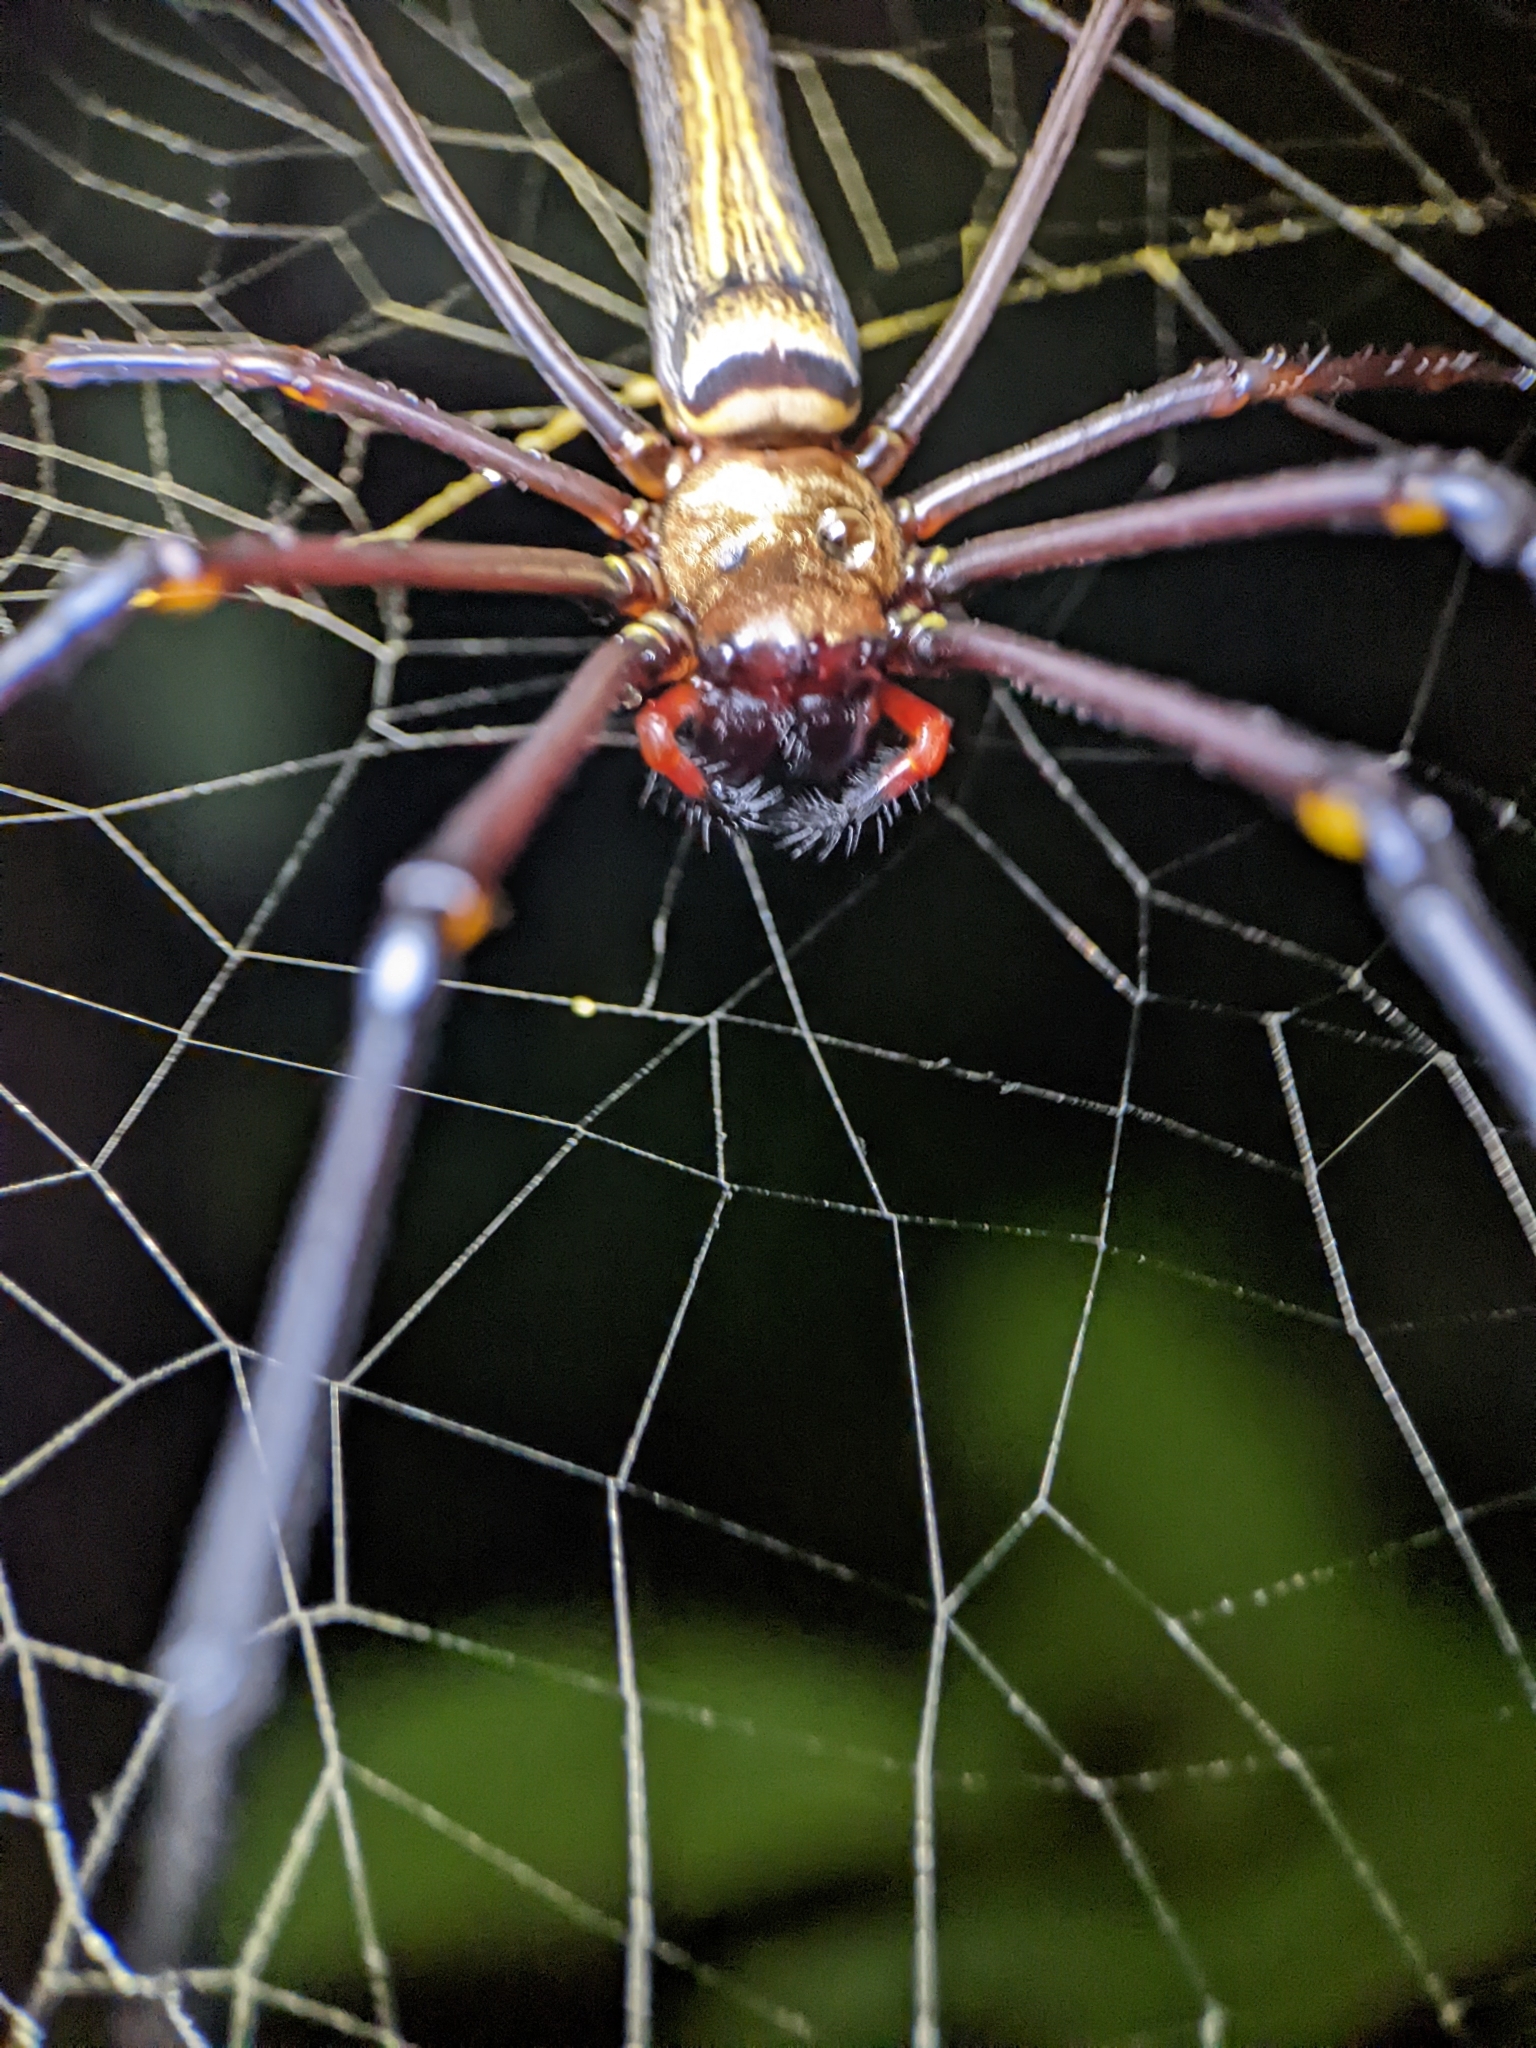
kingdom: Animalia
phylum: Arthropoda
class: Arachnida
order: Araneae
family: Araneidae
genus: Nephila
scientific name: Nephila pilipes
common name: Giant golden orb weaver
